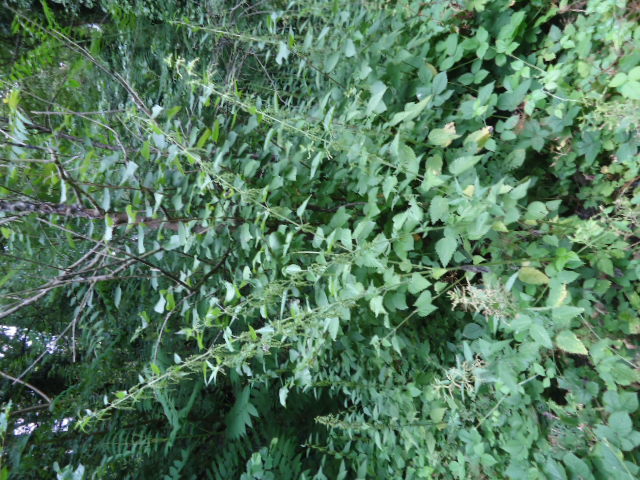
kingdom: Plantae
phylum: Tracheophyta
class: Magnoliopsida
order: Rosales
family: Urticaceae
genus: Urtica
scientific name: Urtica dioica
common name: Common nettle
